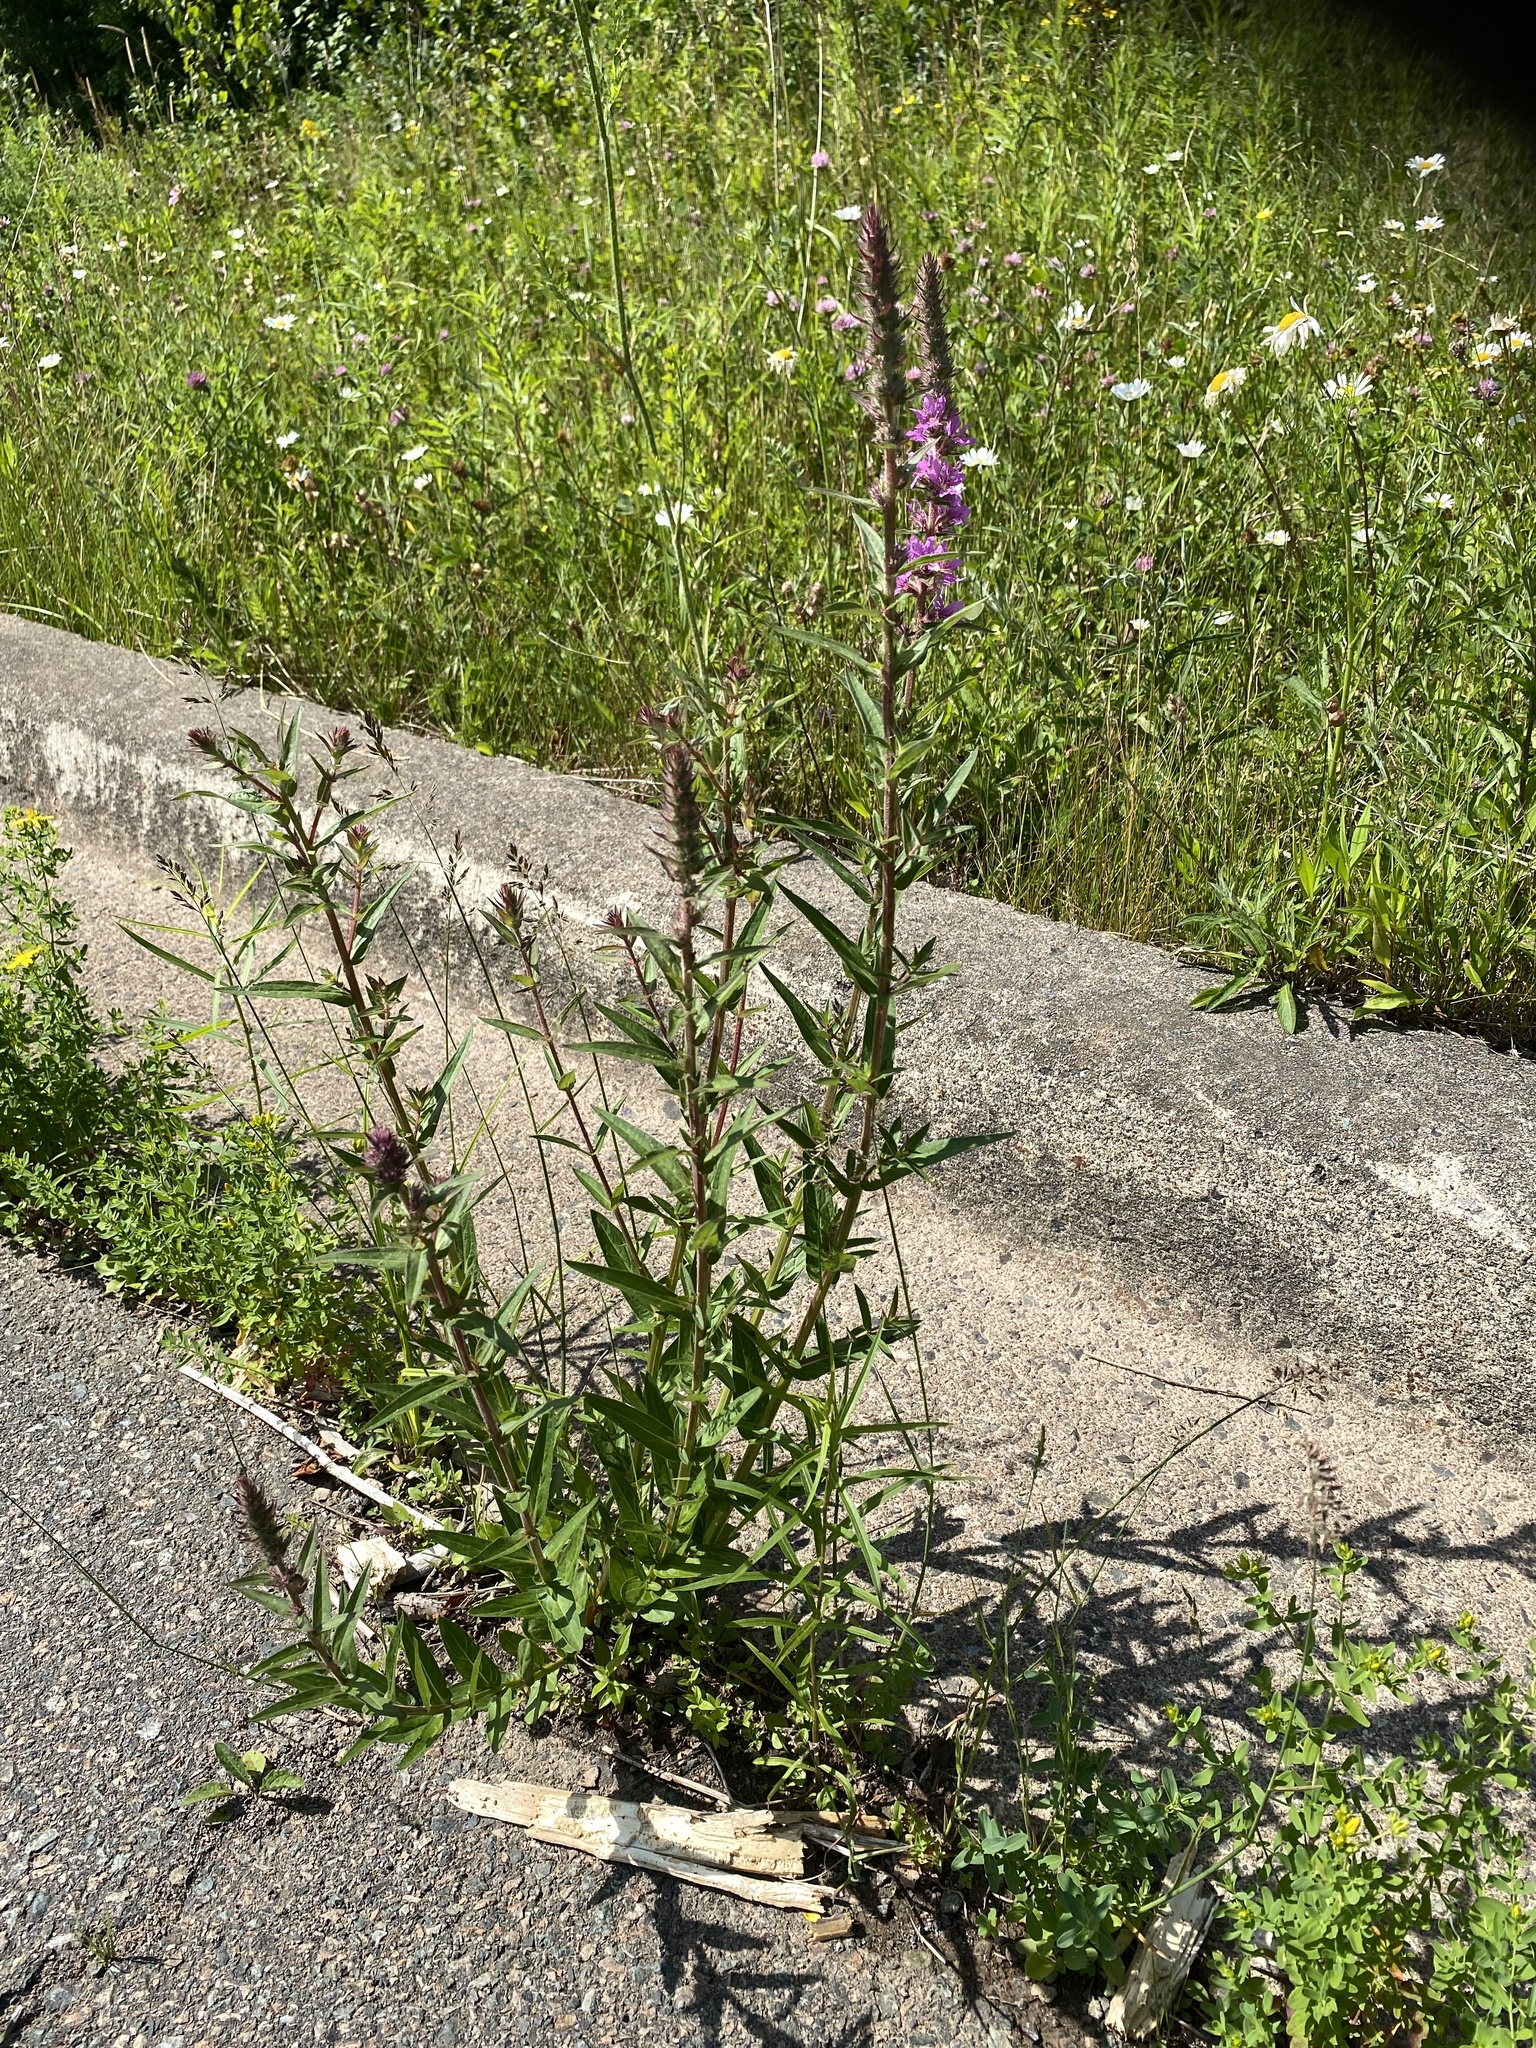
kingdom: Plantae
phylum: Tracheophyta
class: Magnoliopsida
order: Myrtales
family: Lythraceae
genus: Lythrum
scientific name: Lythrum salicaria
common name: Purple loosestrife
